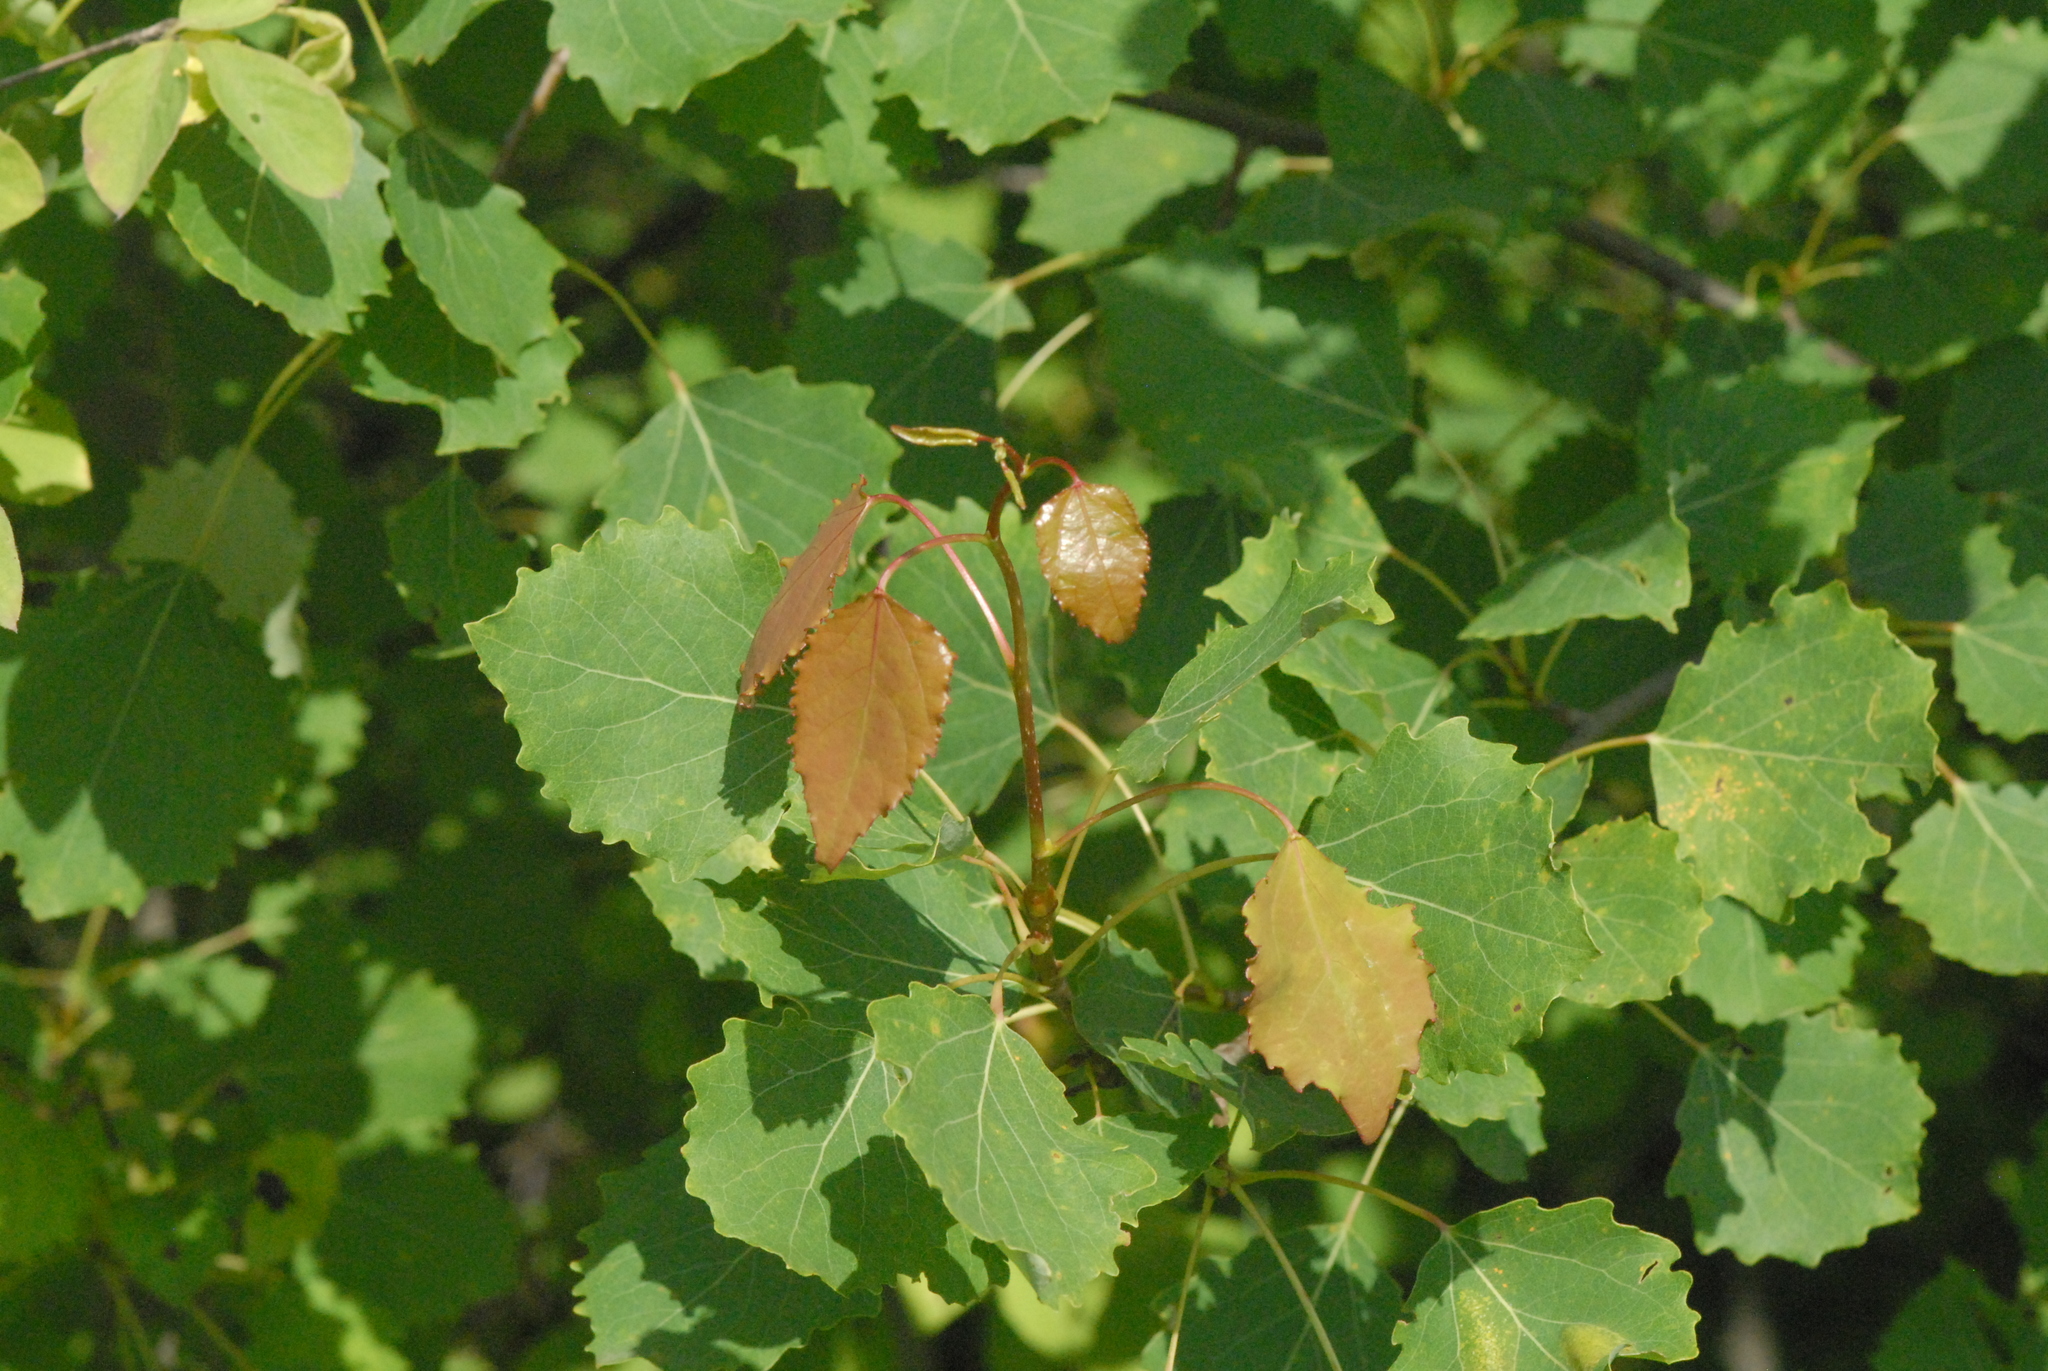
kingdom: Plantae
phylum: Tracheophyta
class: Magnoliopsida
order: Malpighiales
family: Salicaceae
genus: Populus
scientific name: Populus tremula
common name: European aspen
